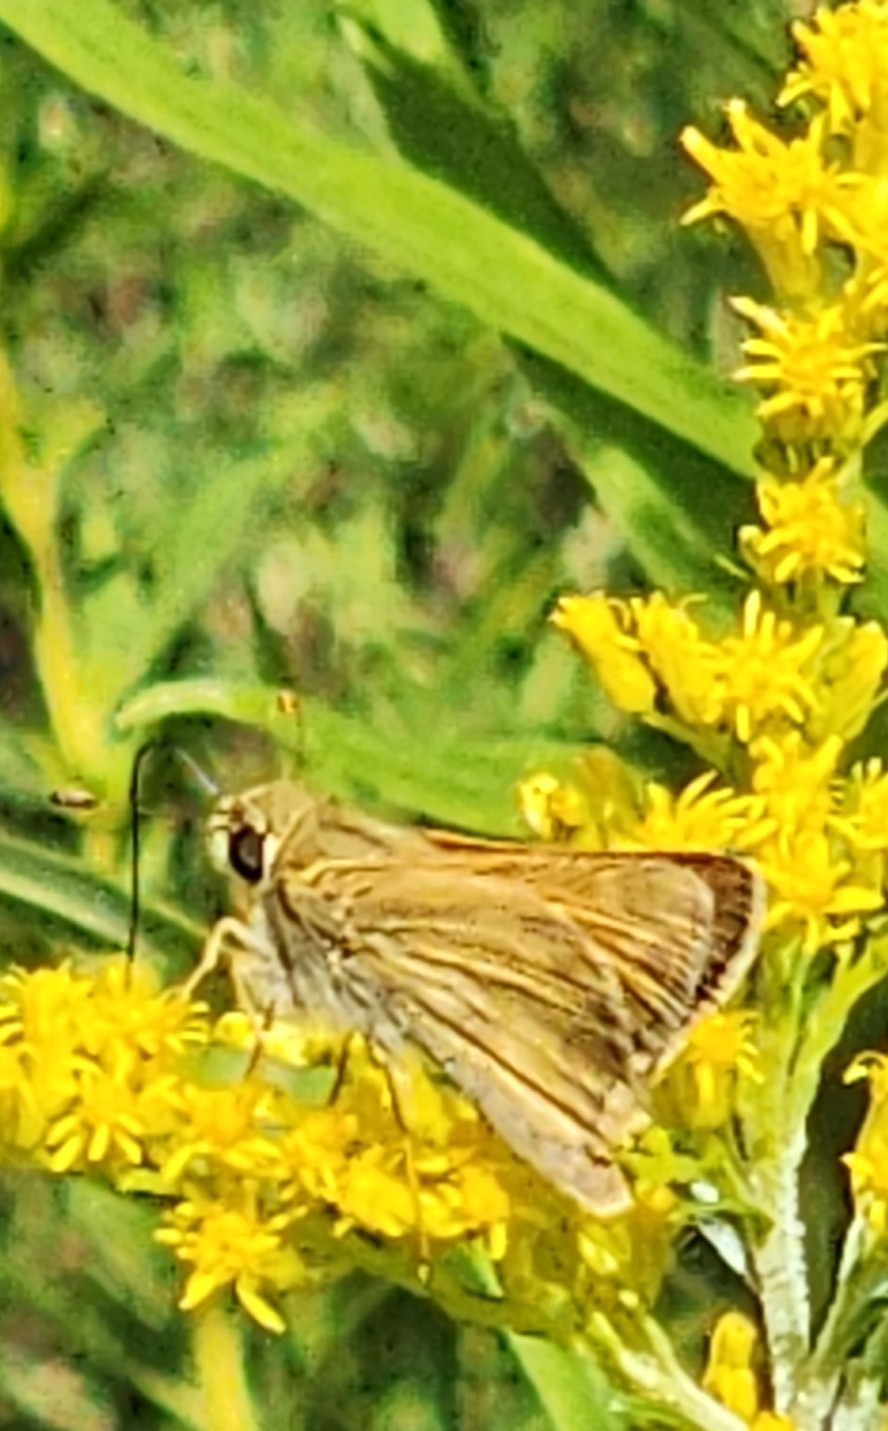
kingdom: Animalia
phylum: Arthropoda
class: Insecta
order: Lepidoptera
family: Hesperiidae
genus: Atalopedes
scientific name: Atalopedes
